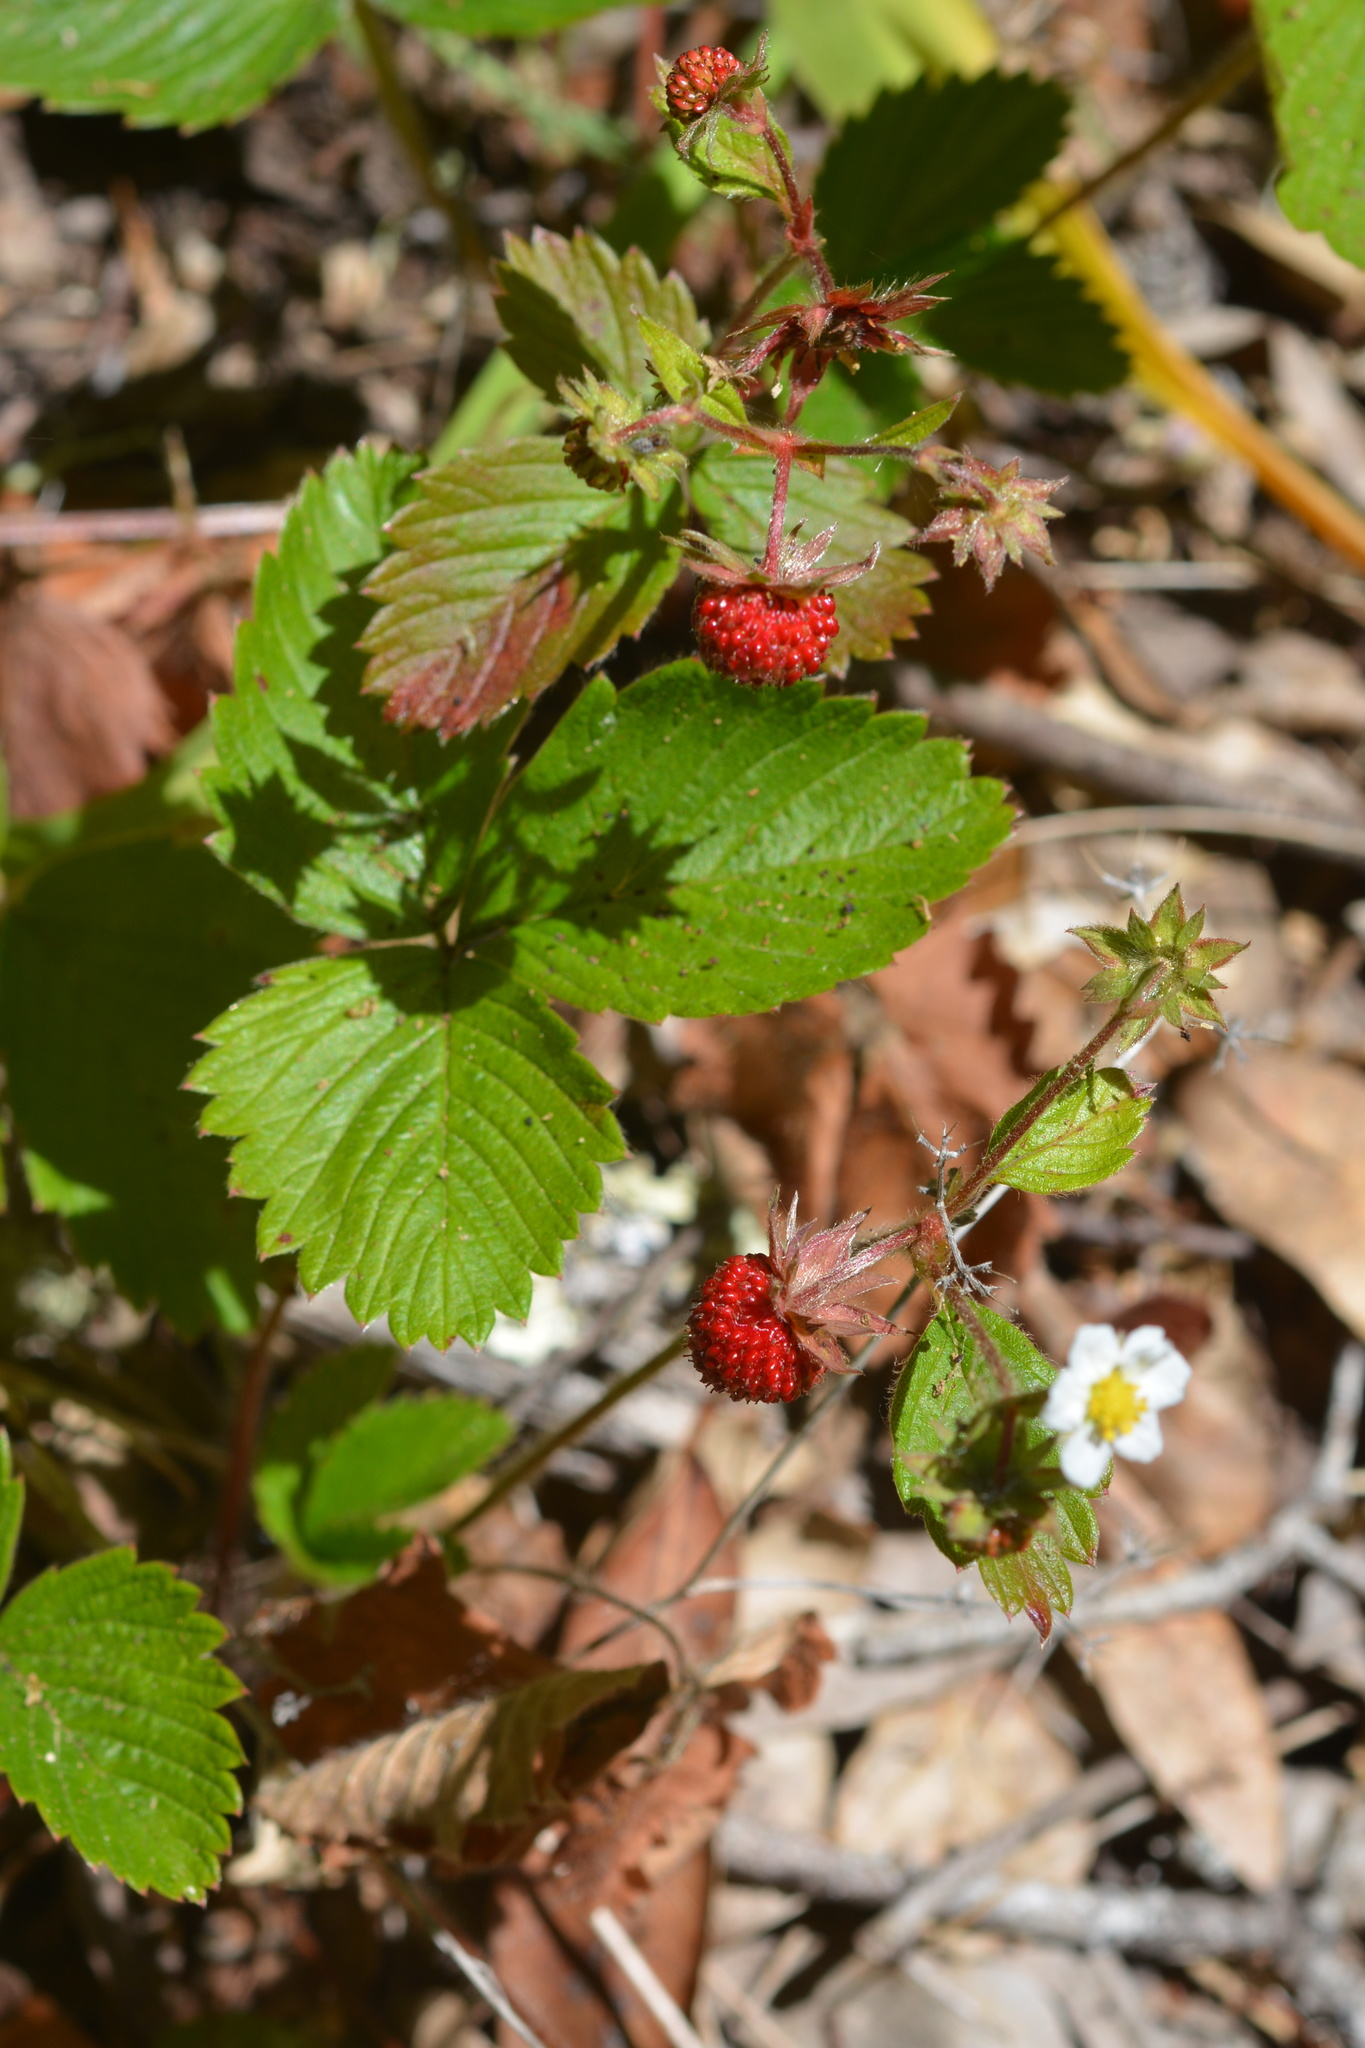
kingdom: Plantae
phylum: Tracheophyta
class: Magnoliopsida
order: Rosales
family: Rosaceae
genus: Fragaria
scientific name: Fragaria vesca
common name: Wild strawberry
